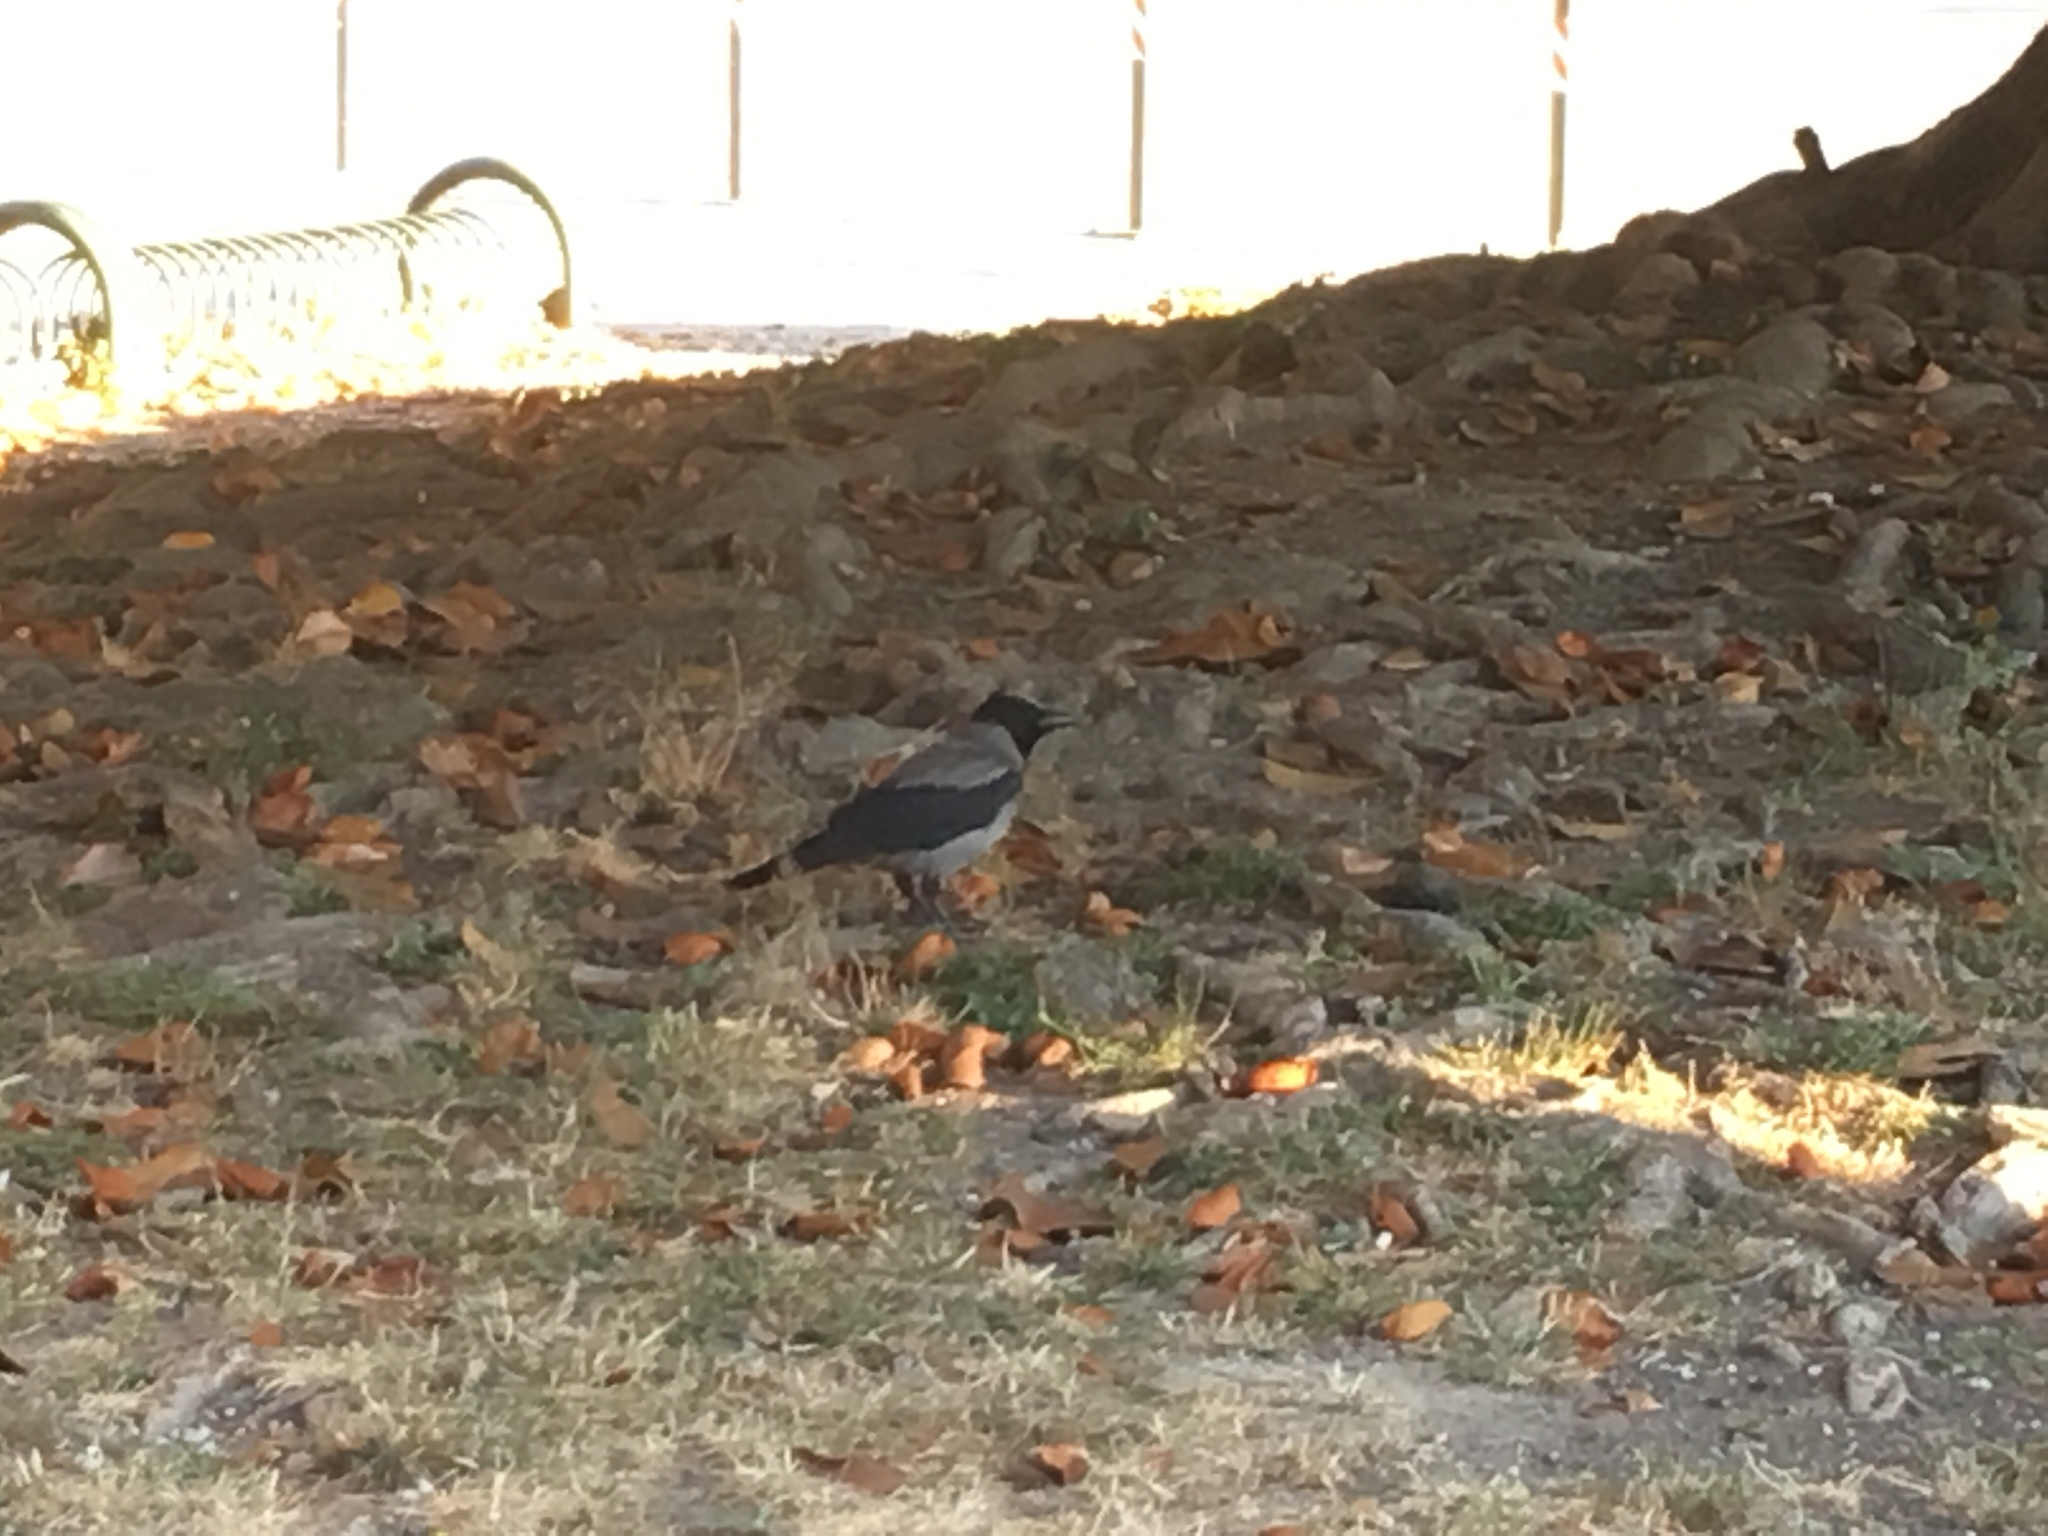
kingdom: Animalia
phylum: Chordata
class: Aves
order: Passeriformes
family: Corvidae
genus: Corvus
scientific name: Corvus cornix
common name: Hooded crow
